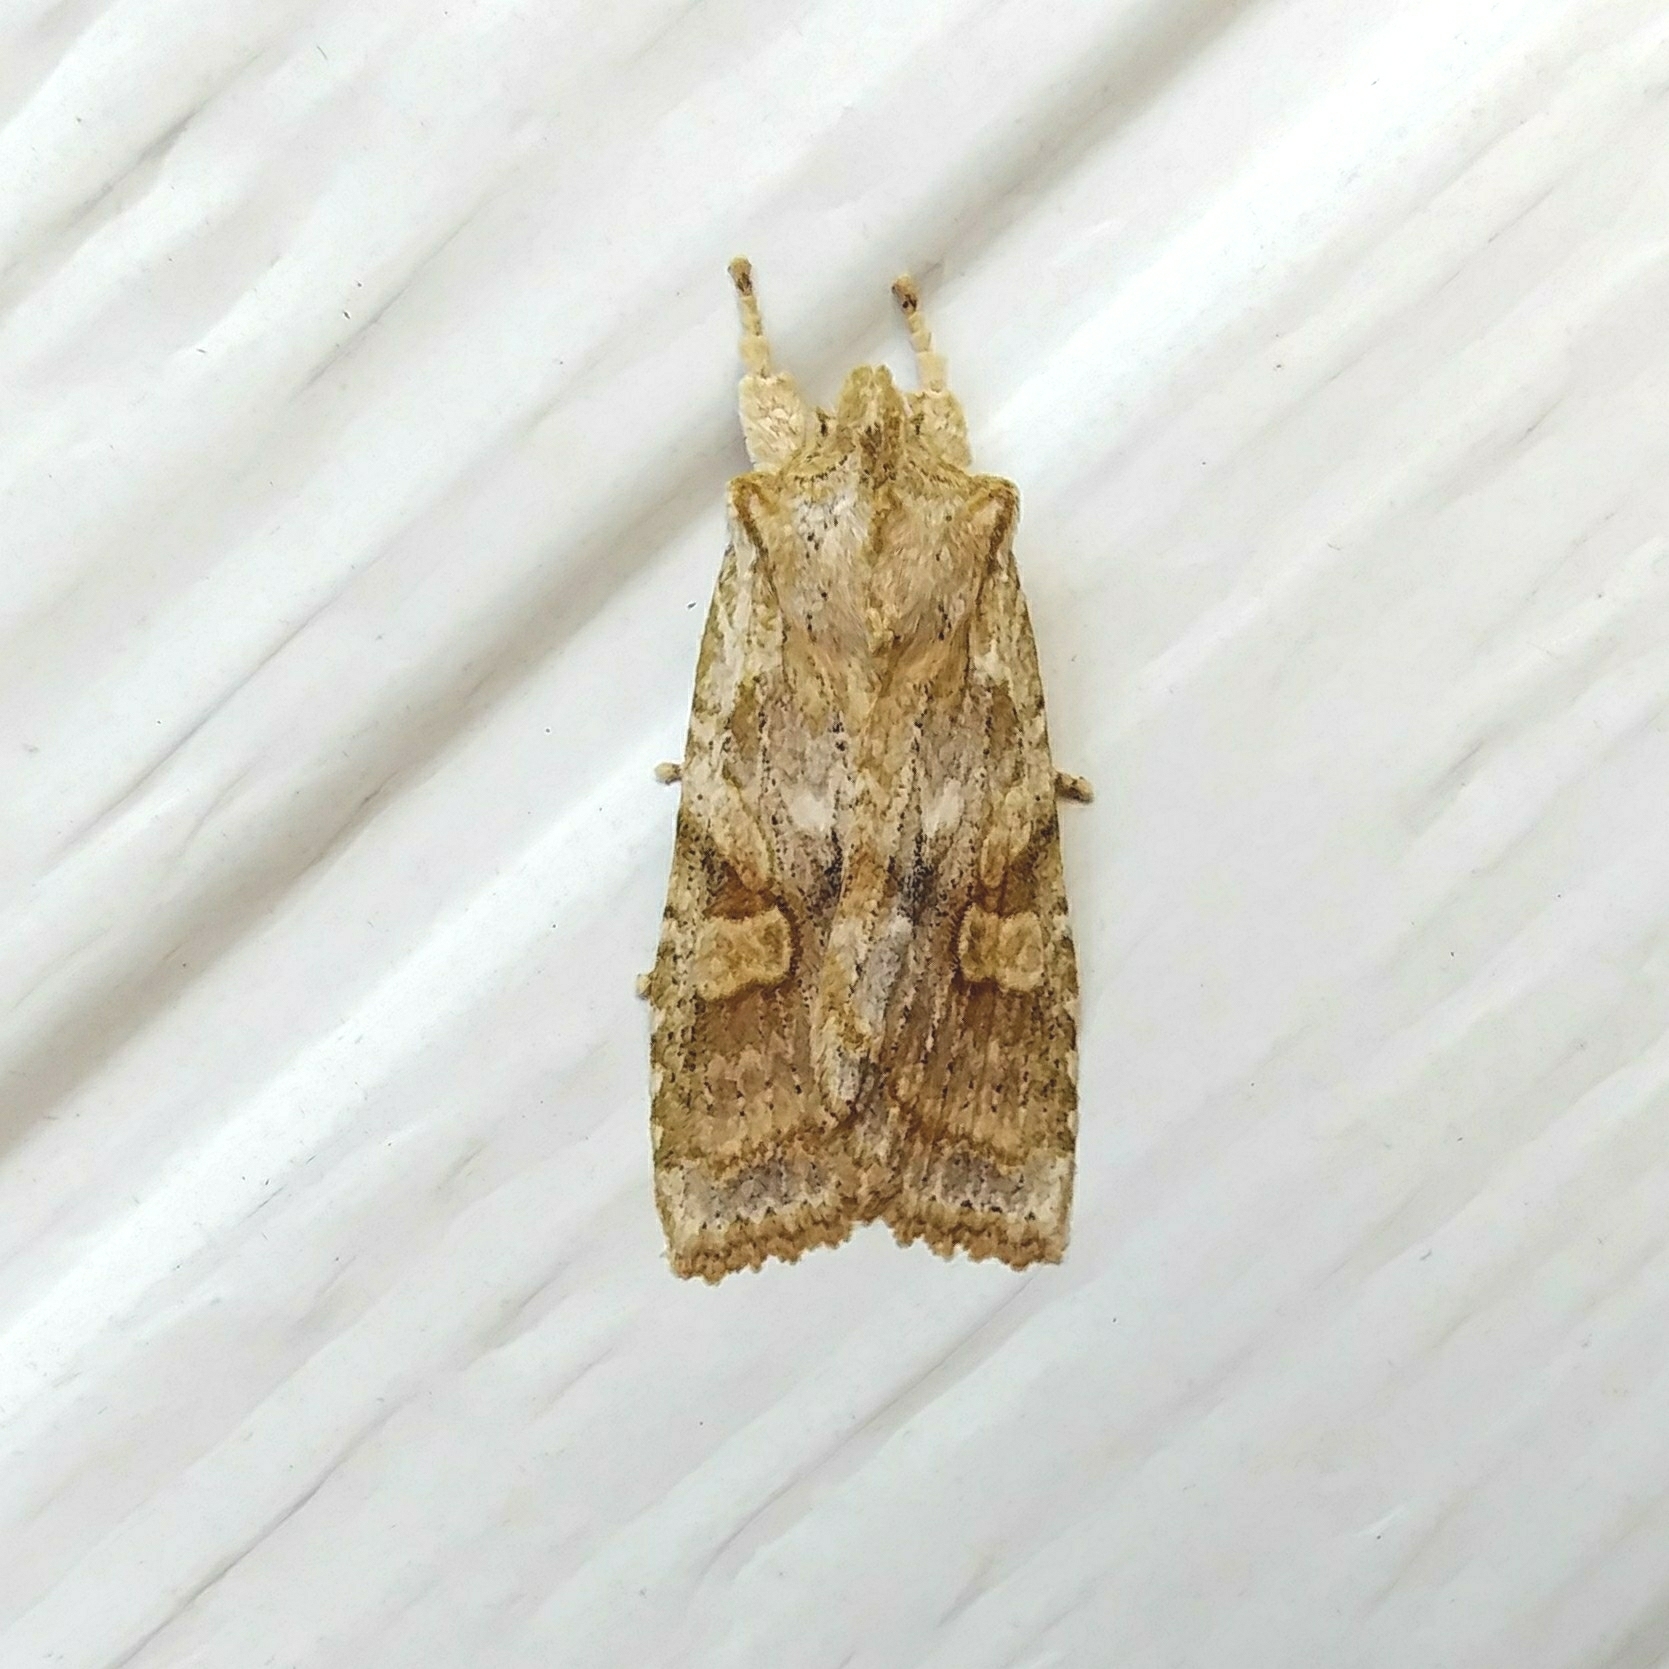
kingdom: Animalia
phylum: Arthropoda
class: Insecta
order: Lepidoptera
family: Noctuidae
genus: Lithophane
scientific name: Lithophane bethunei
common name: Bethune's pinion moth
